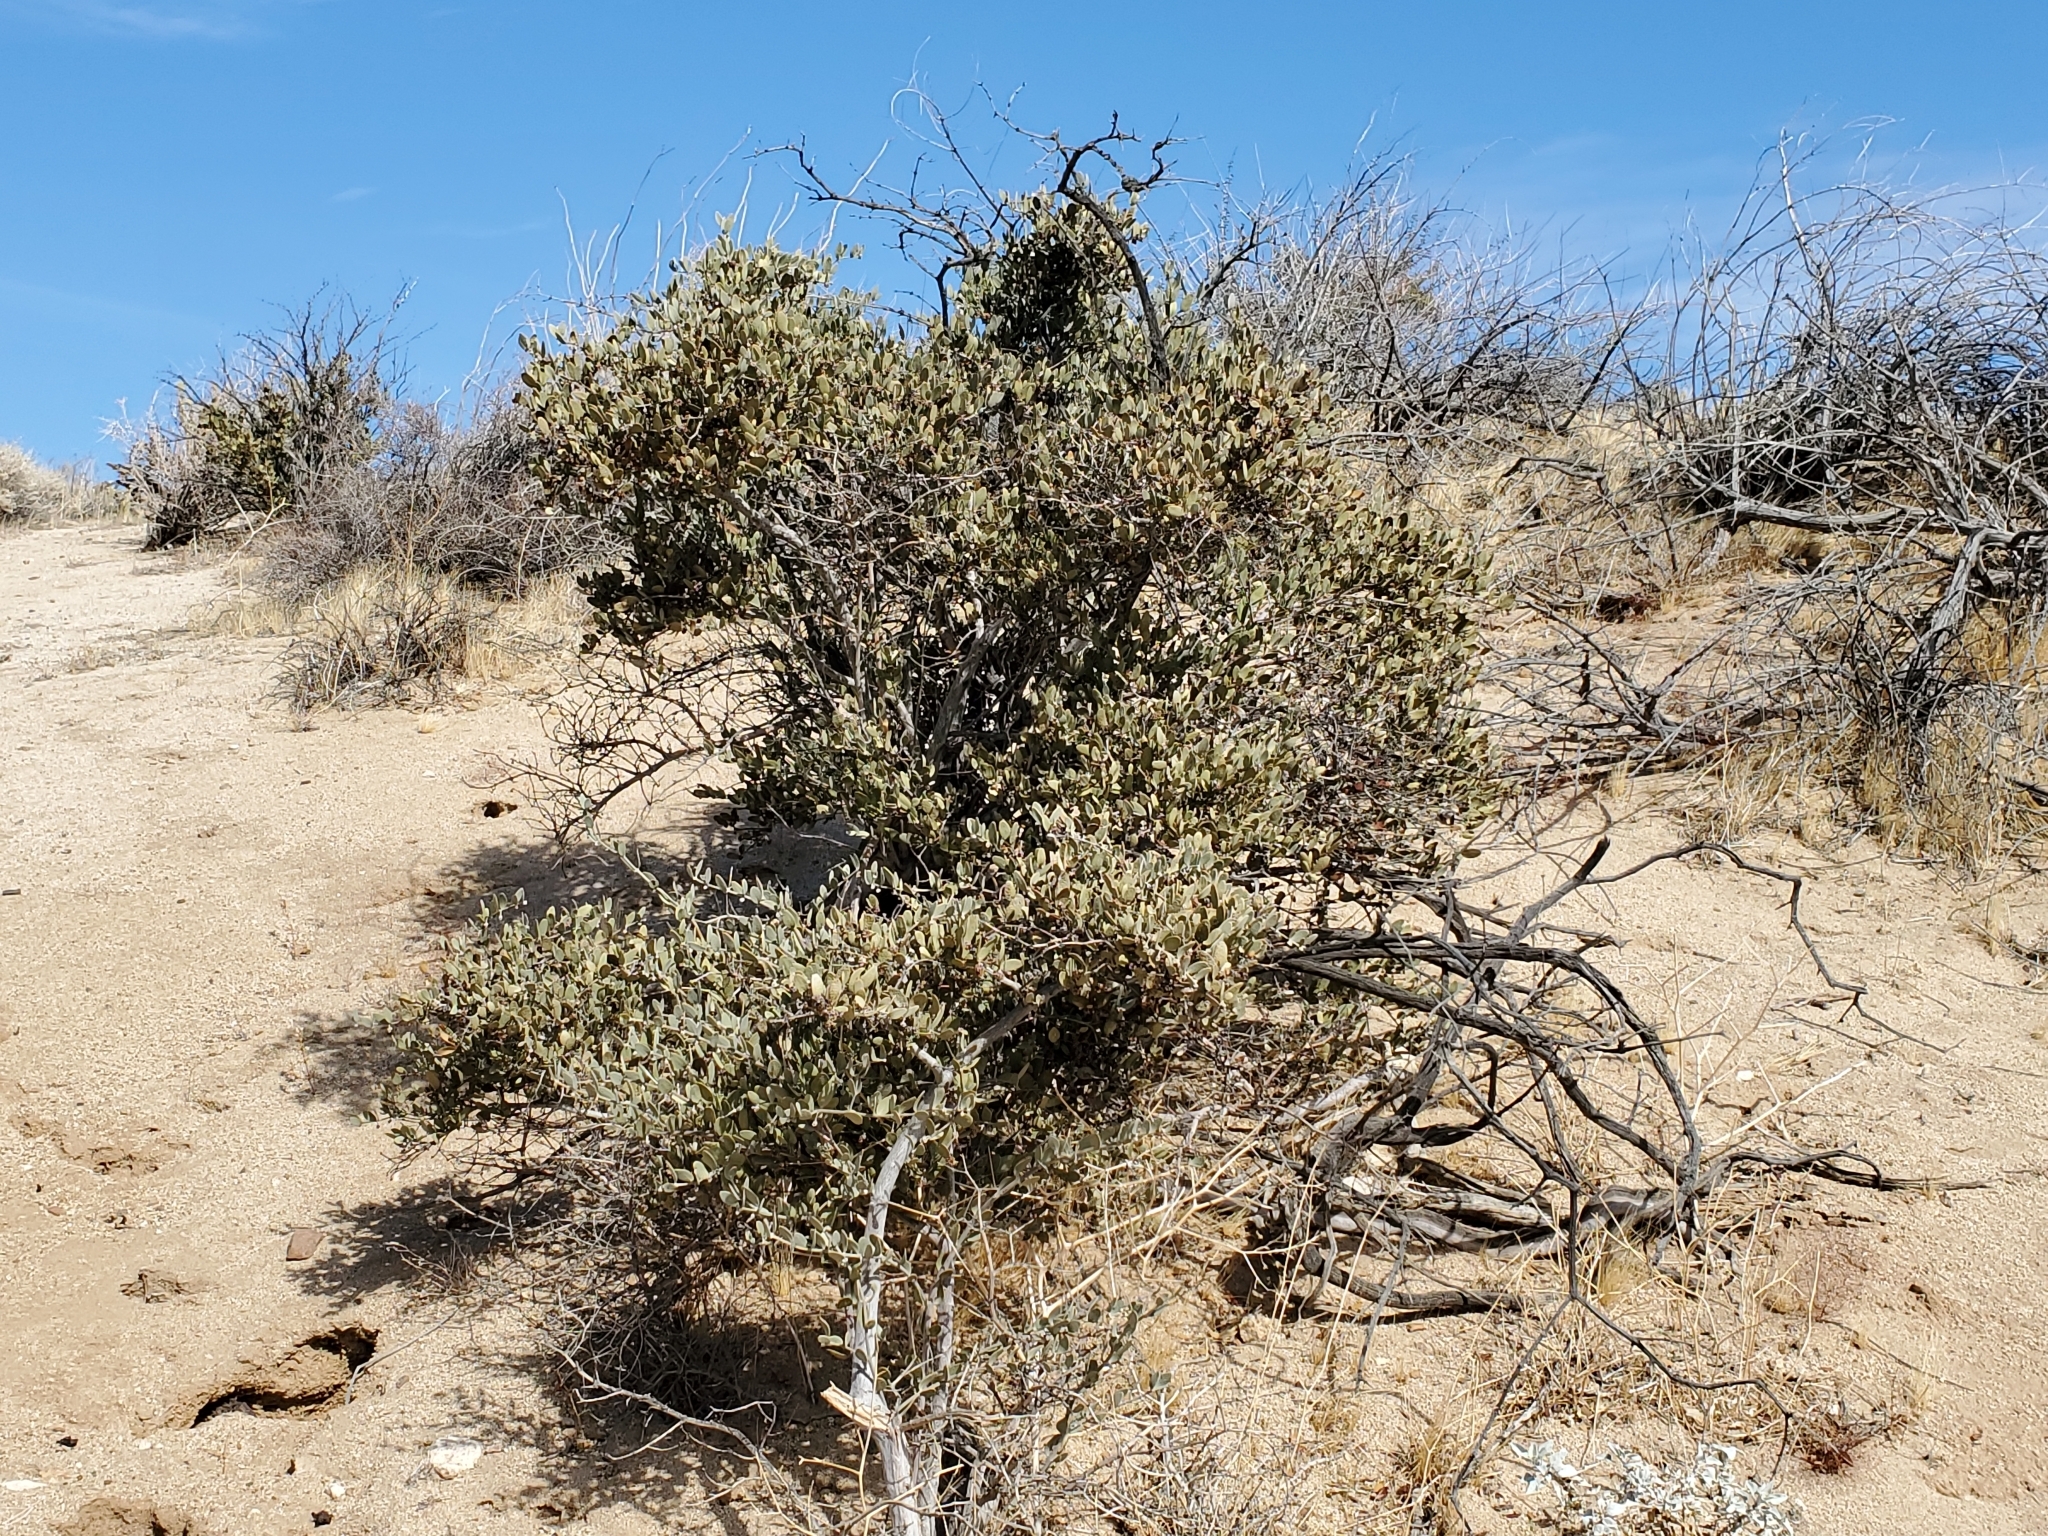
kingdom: Plantae
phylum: Tracheophyta
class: Magnoliopsida
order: Caryophyllales
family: Simmondsiaceae
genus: Simmondsia
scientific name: Simmondsia chinensis
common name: Jojoba
